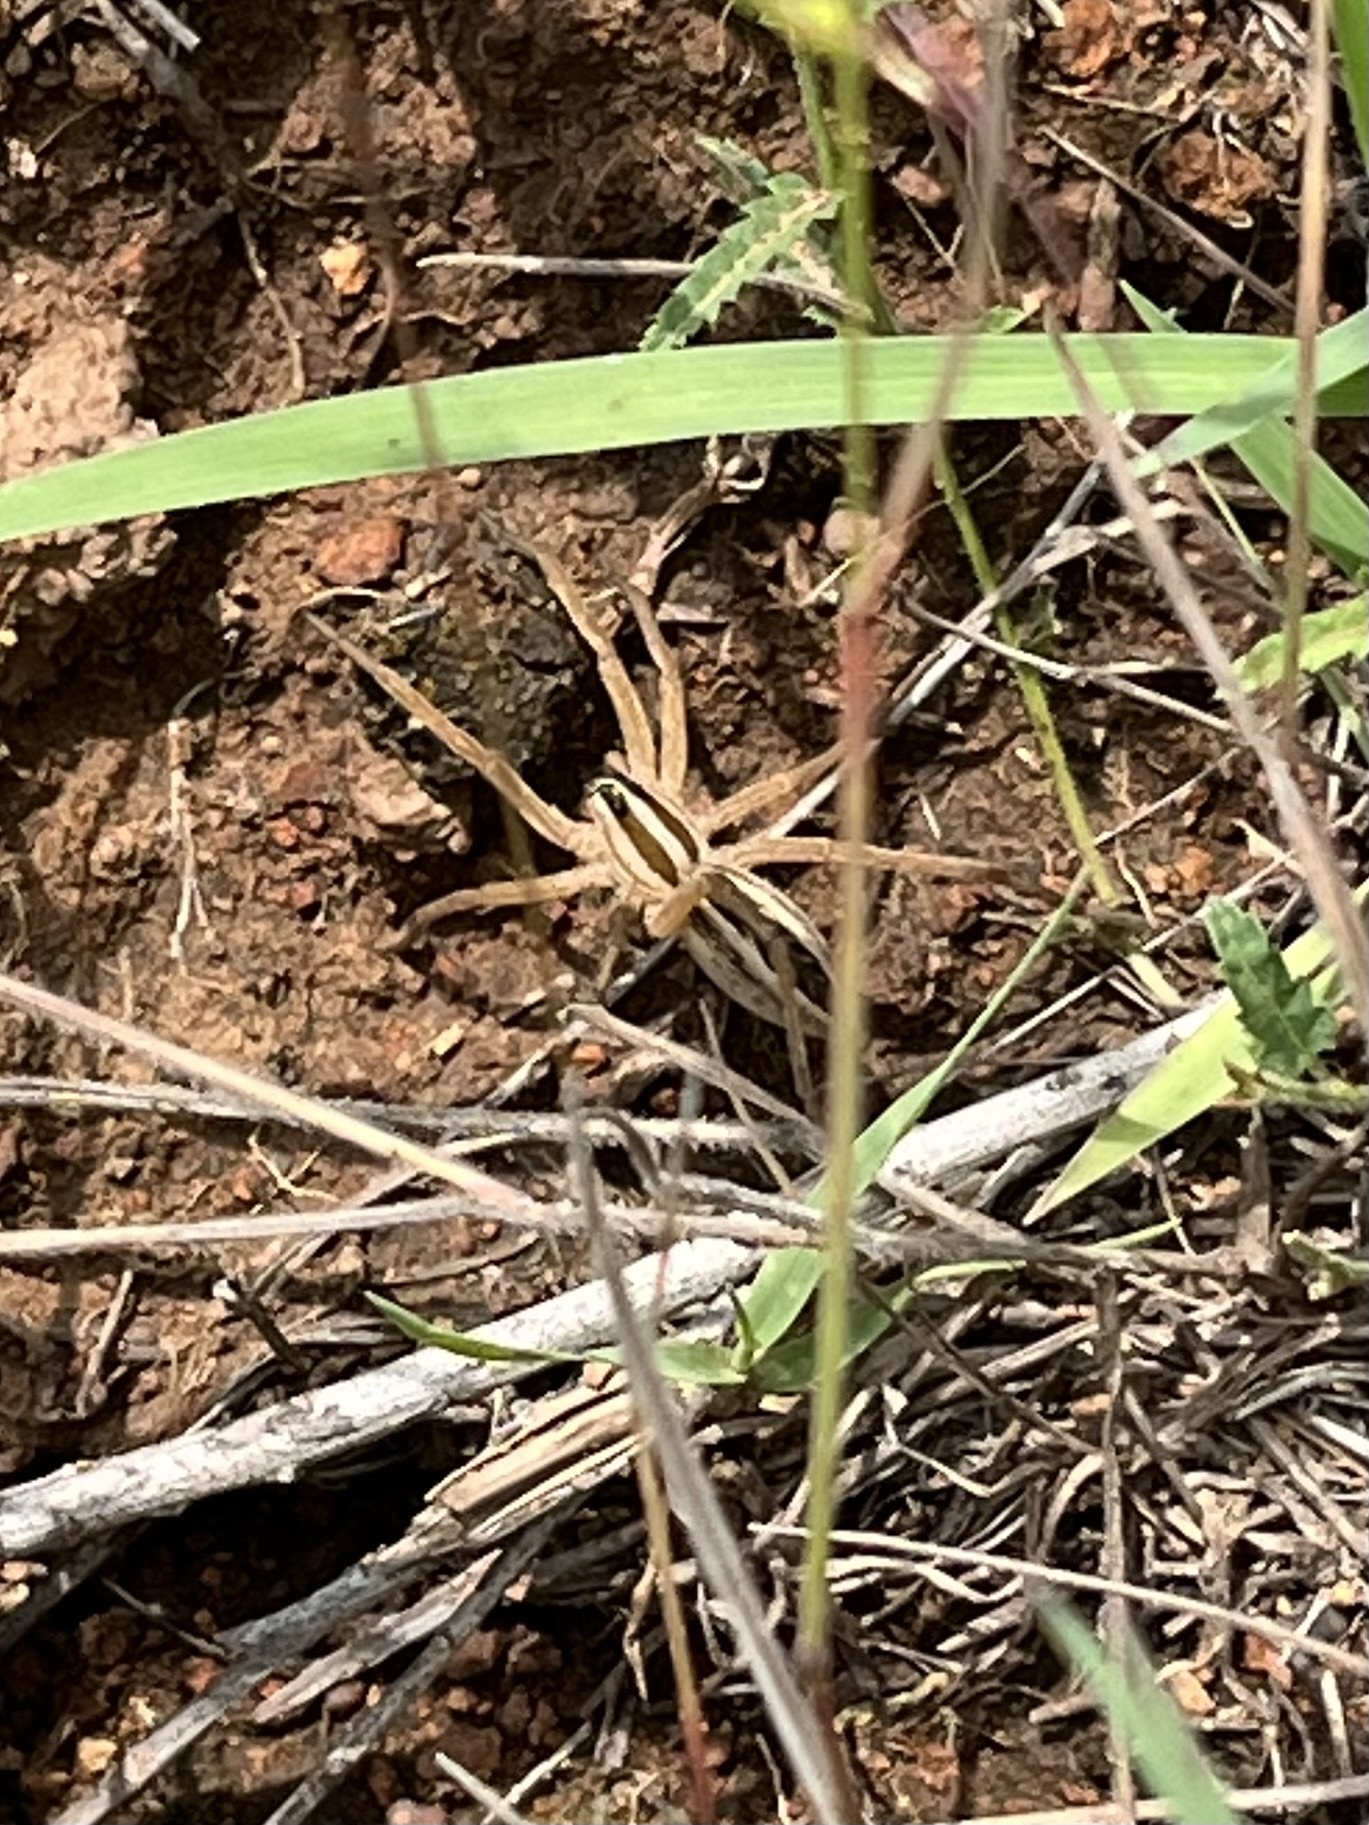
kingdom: Animalia
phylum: Arthropoda
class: Arachnida
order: Araneae
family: Lycosidae
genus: Rabidosa
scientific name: Rabidosa rabida
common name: Rabid wolf spider
